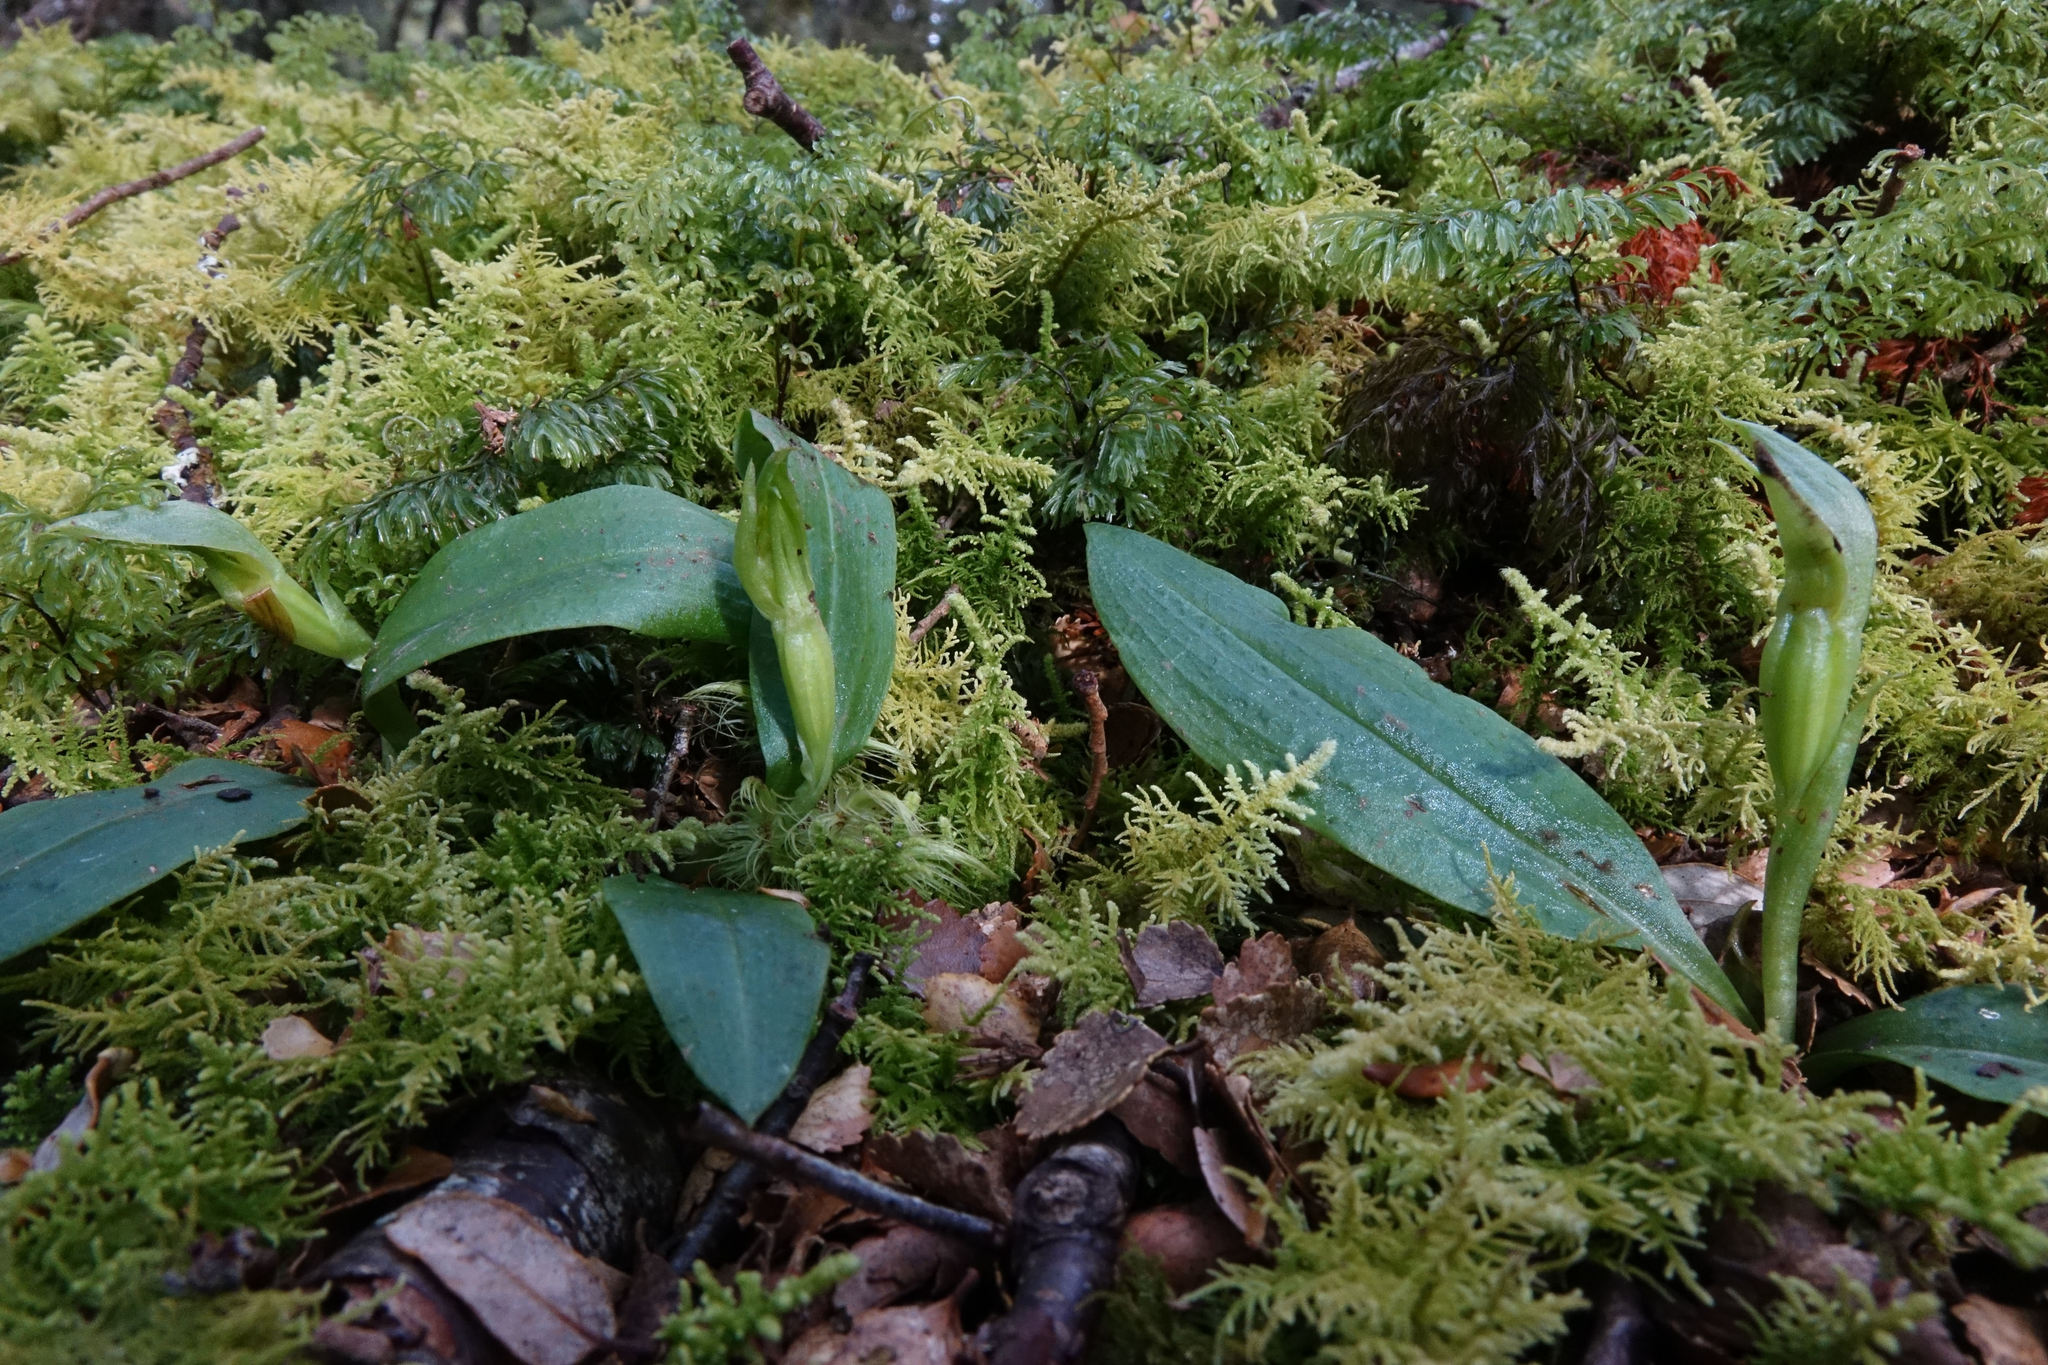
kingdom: Plantae
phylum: Tracheophyta
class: Liliopsida
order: Asparagales
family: Orchidaceae
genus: Chiloglottis
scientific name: Chiloglottis cornuta
